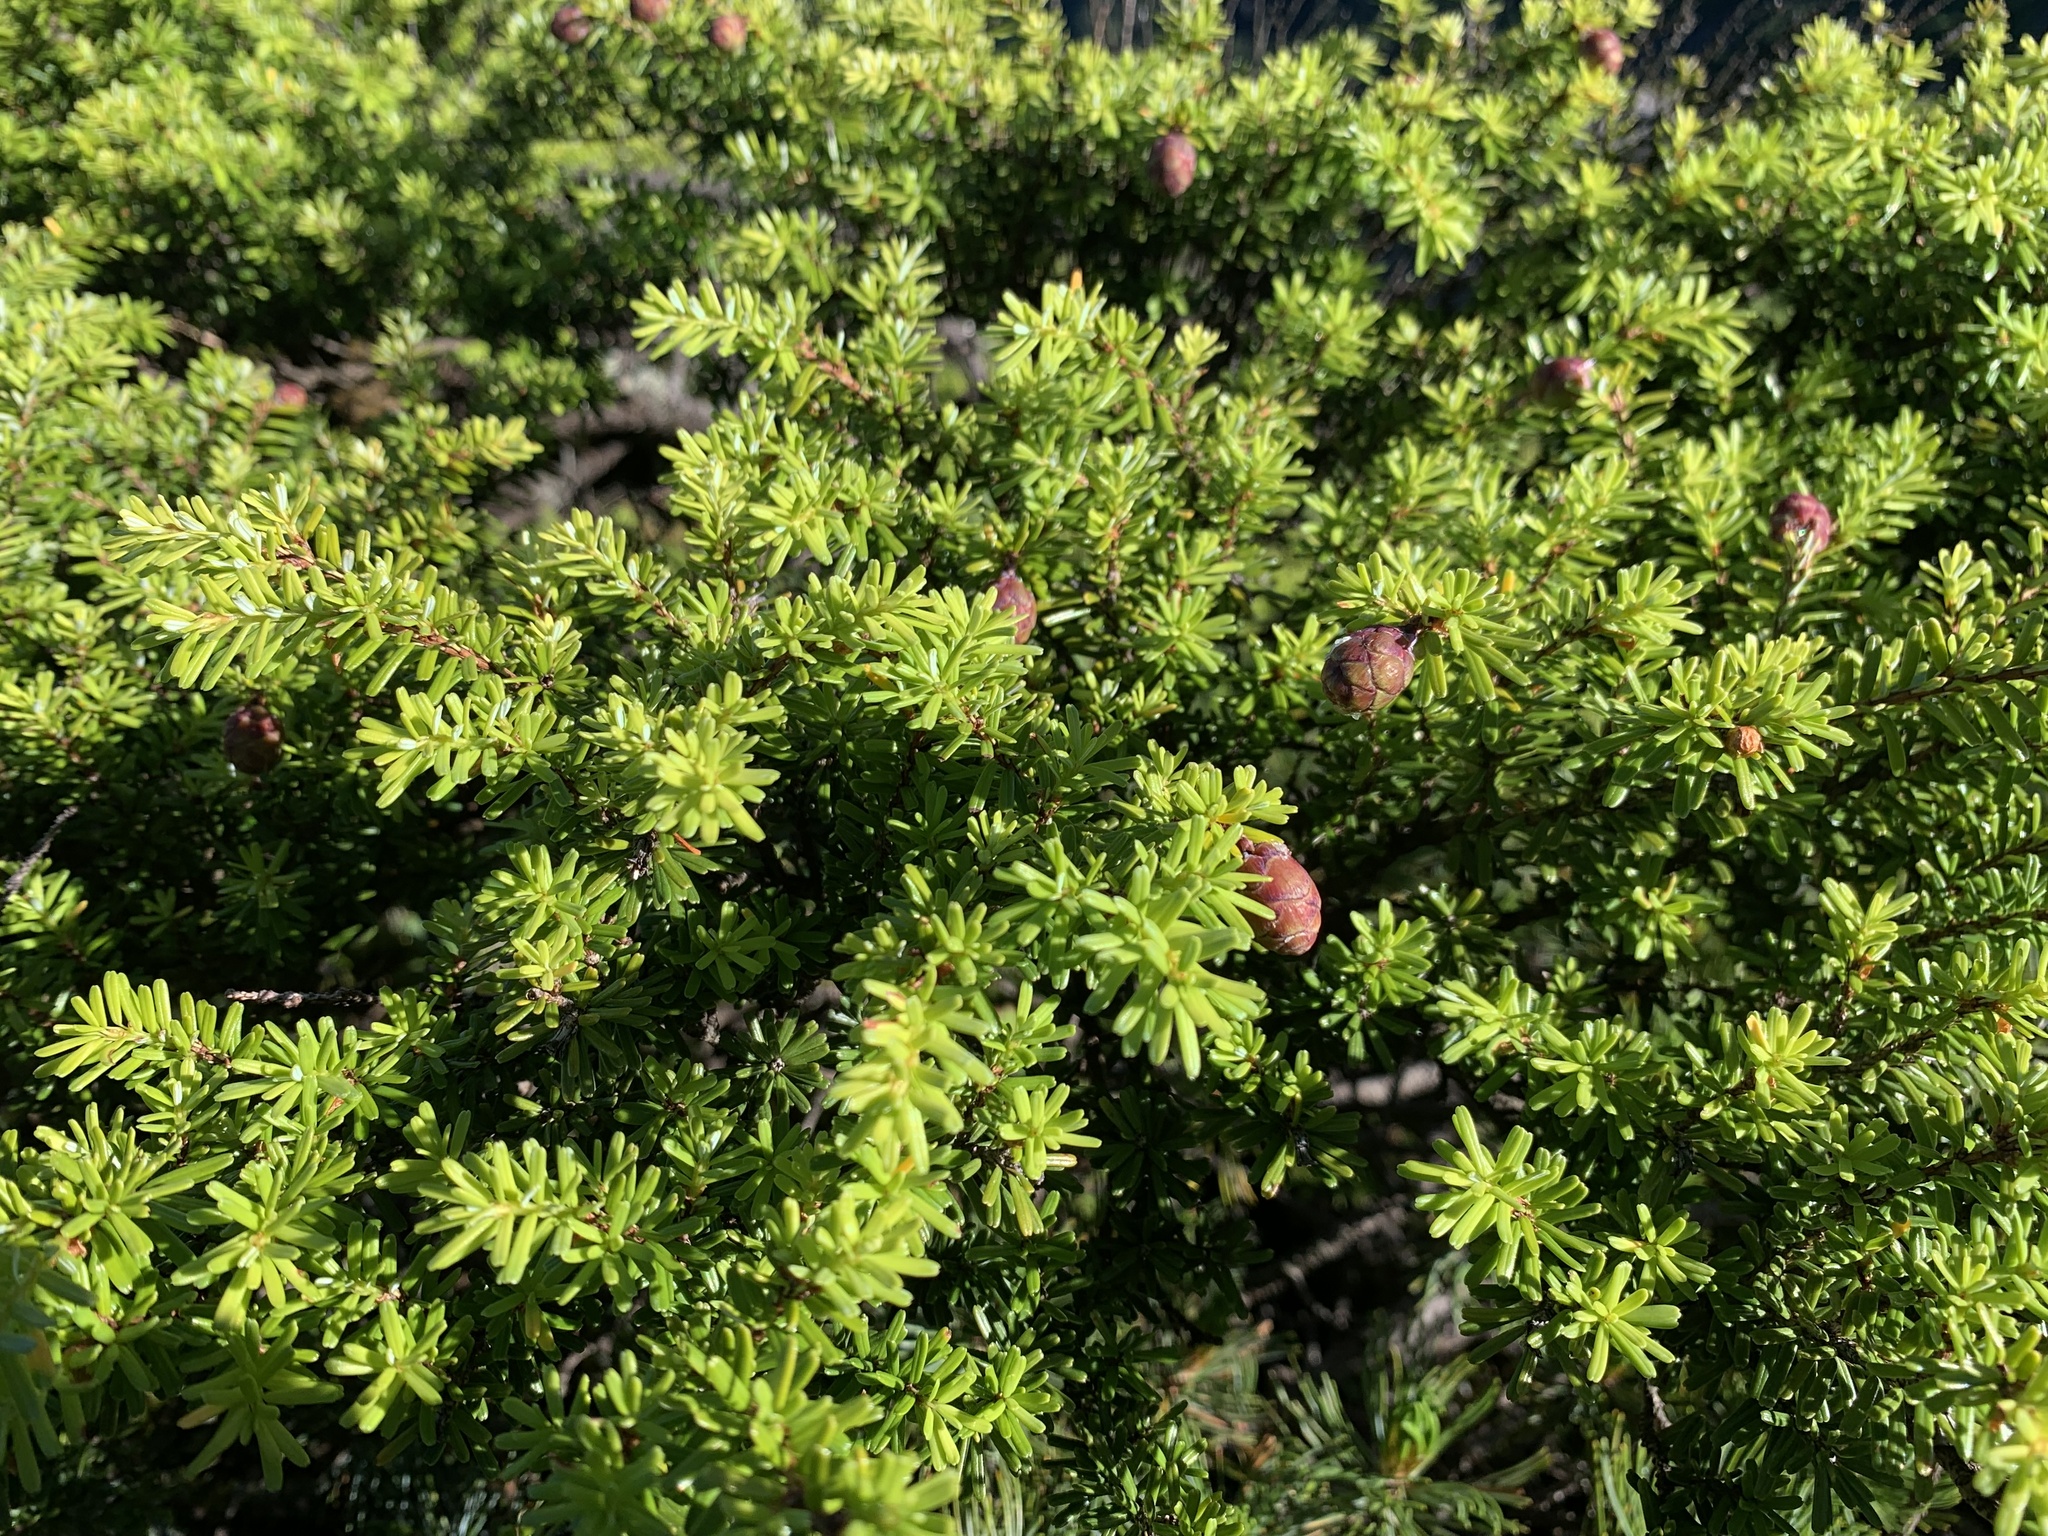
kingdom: Plantae
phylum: Tracheophyta
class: Pinopsida
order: Pinales
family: Pinaceae
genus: Tsuga
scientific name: Tsuga diversifolia
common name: Northern japanese hemlock
